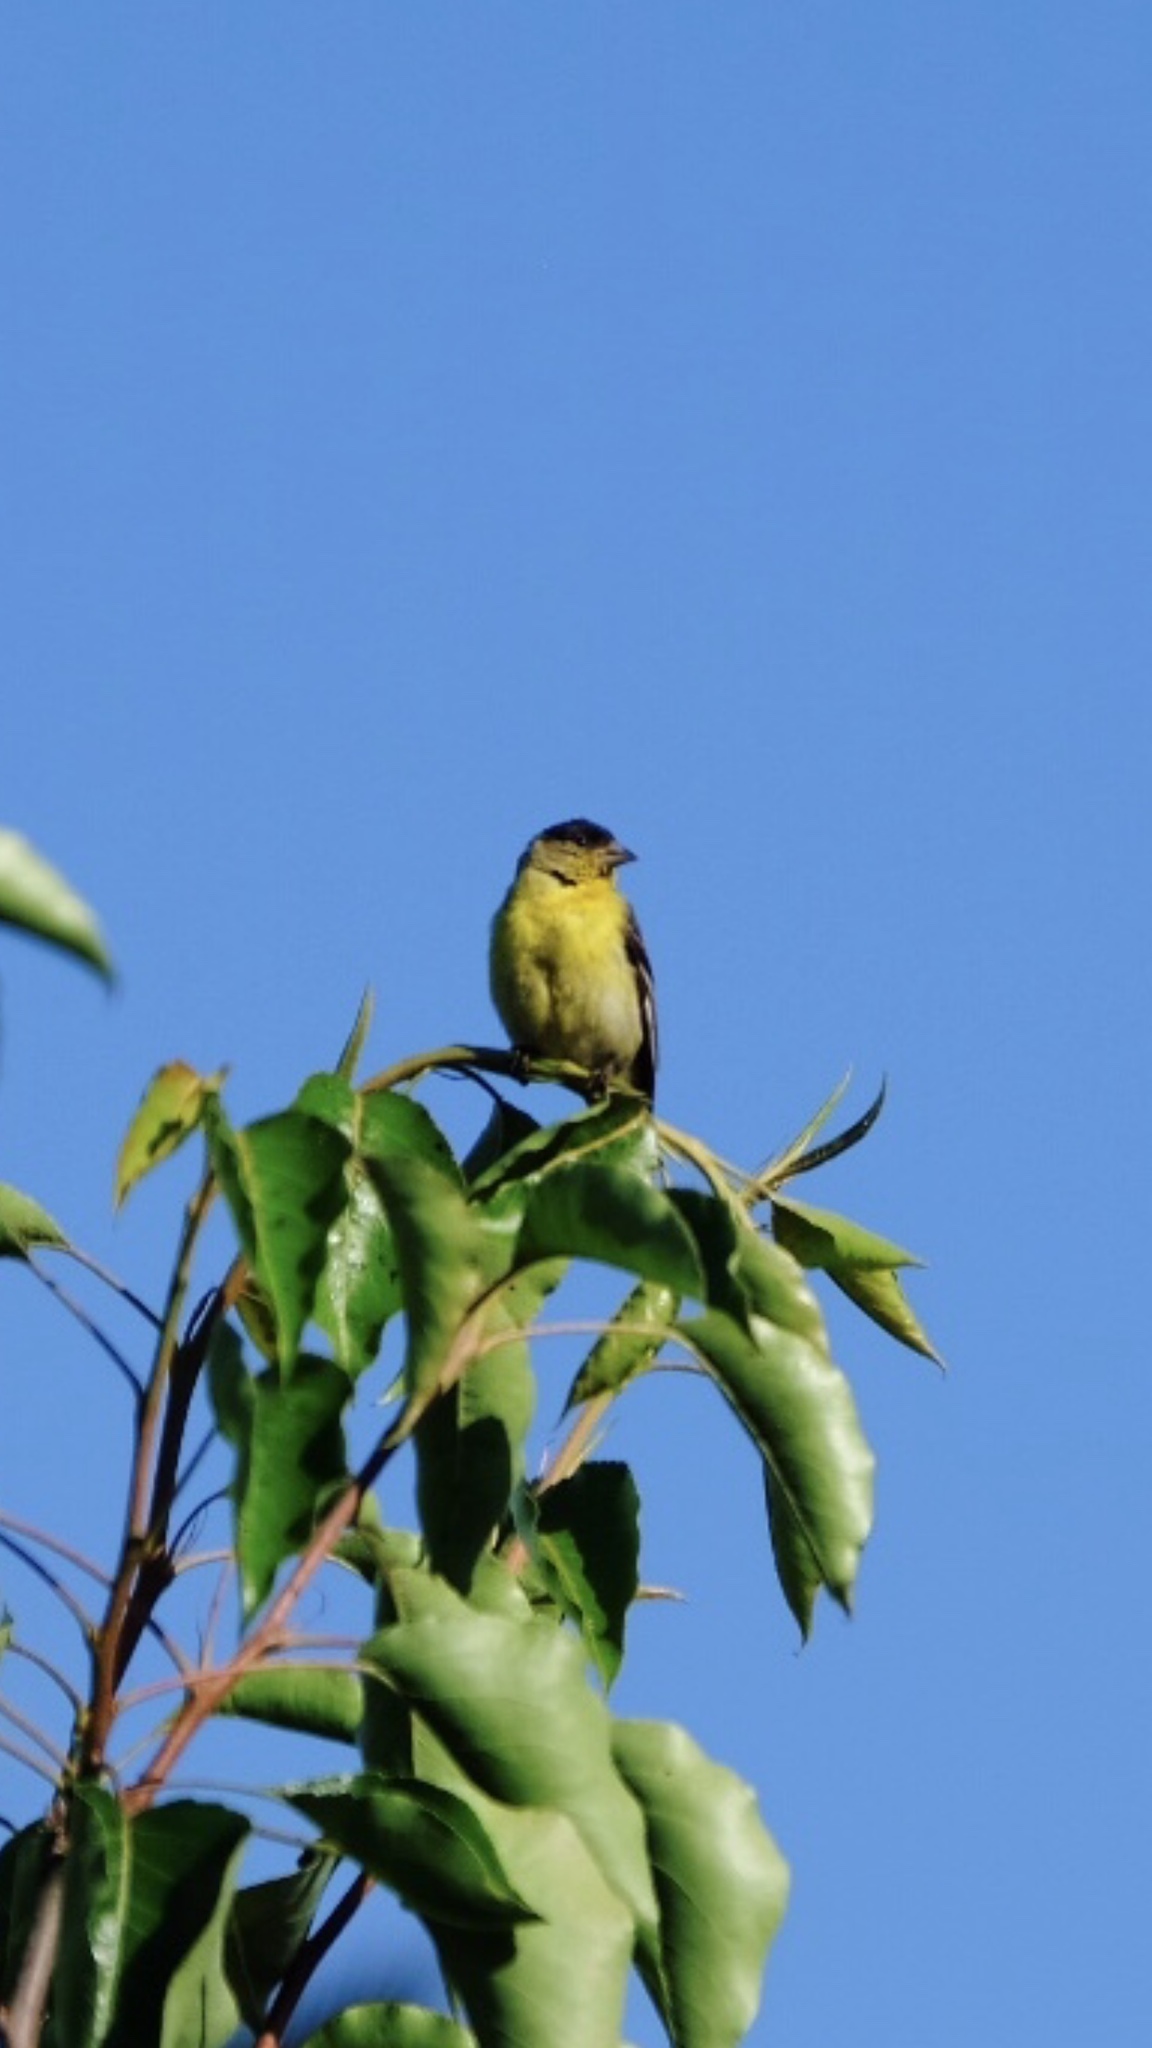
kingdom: Animalia
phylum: Chordata
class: Aves
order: Passeriformes
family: Fringillidae
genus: Spinus
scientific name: Spinus psaltria
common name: Lesser goldfinch
